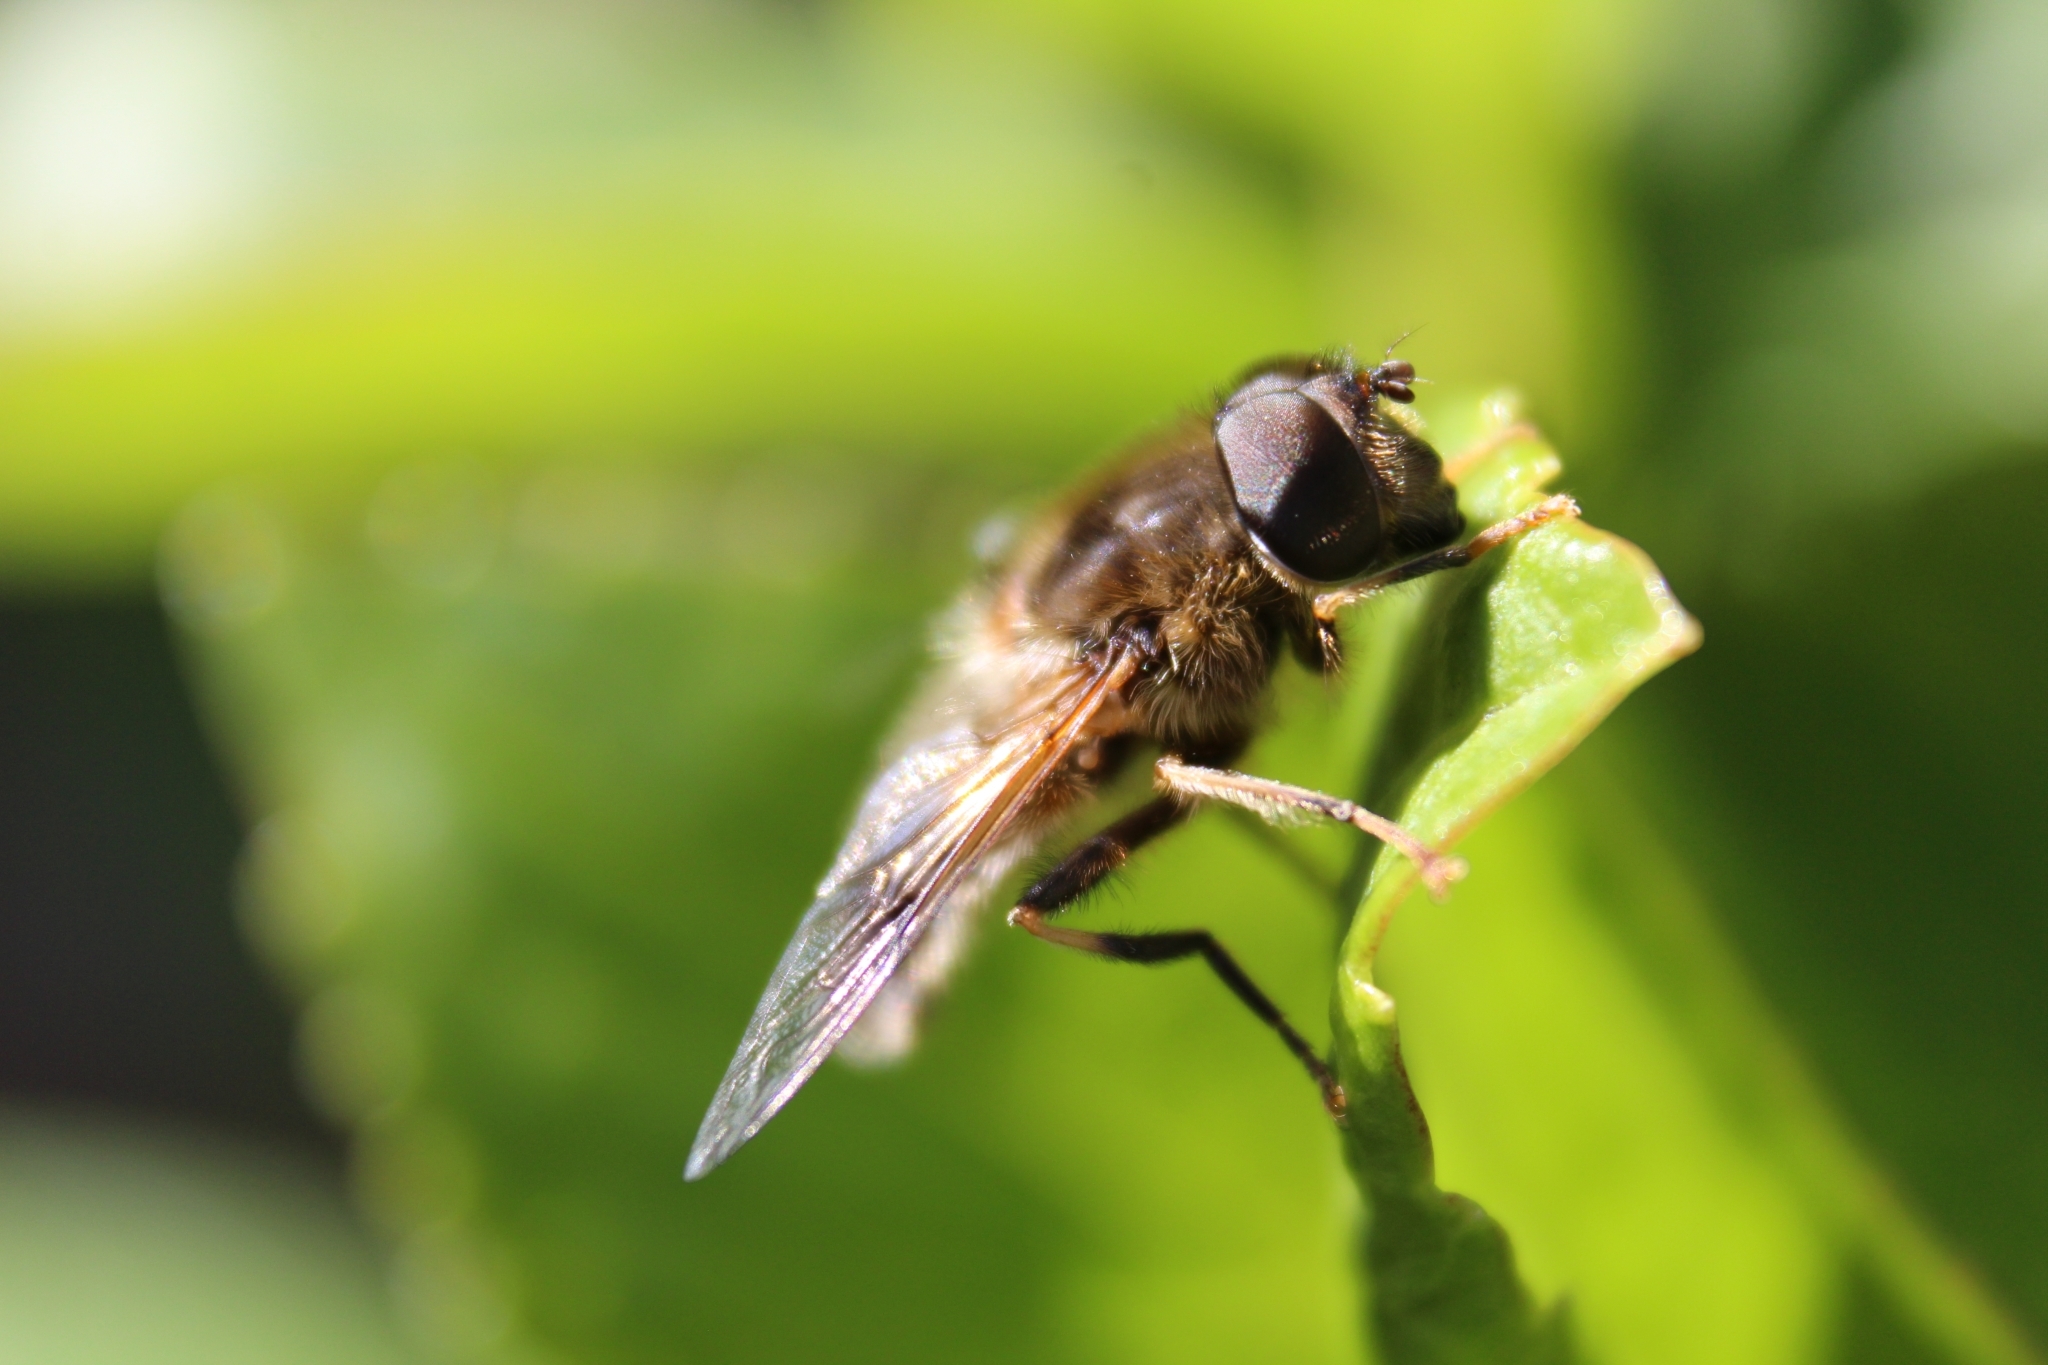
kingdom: Animalia
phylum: Arthropoda
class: Insecta
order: Diptera
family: Syrphidae
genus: Eristalis
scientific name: Eristalis pertinax
